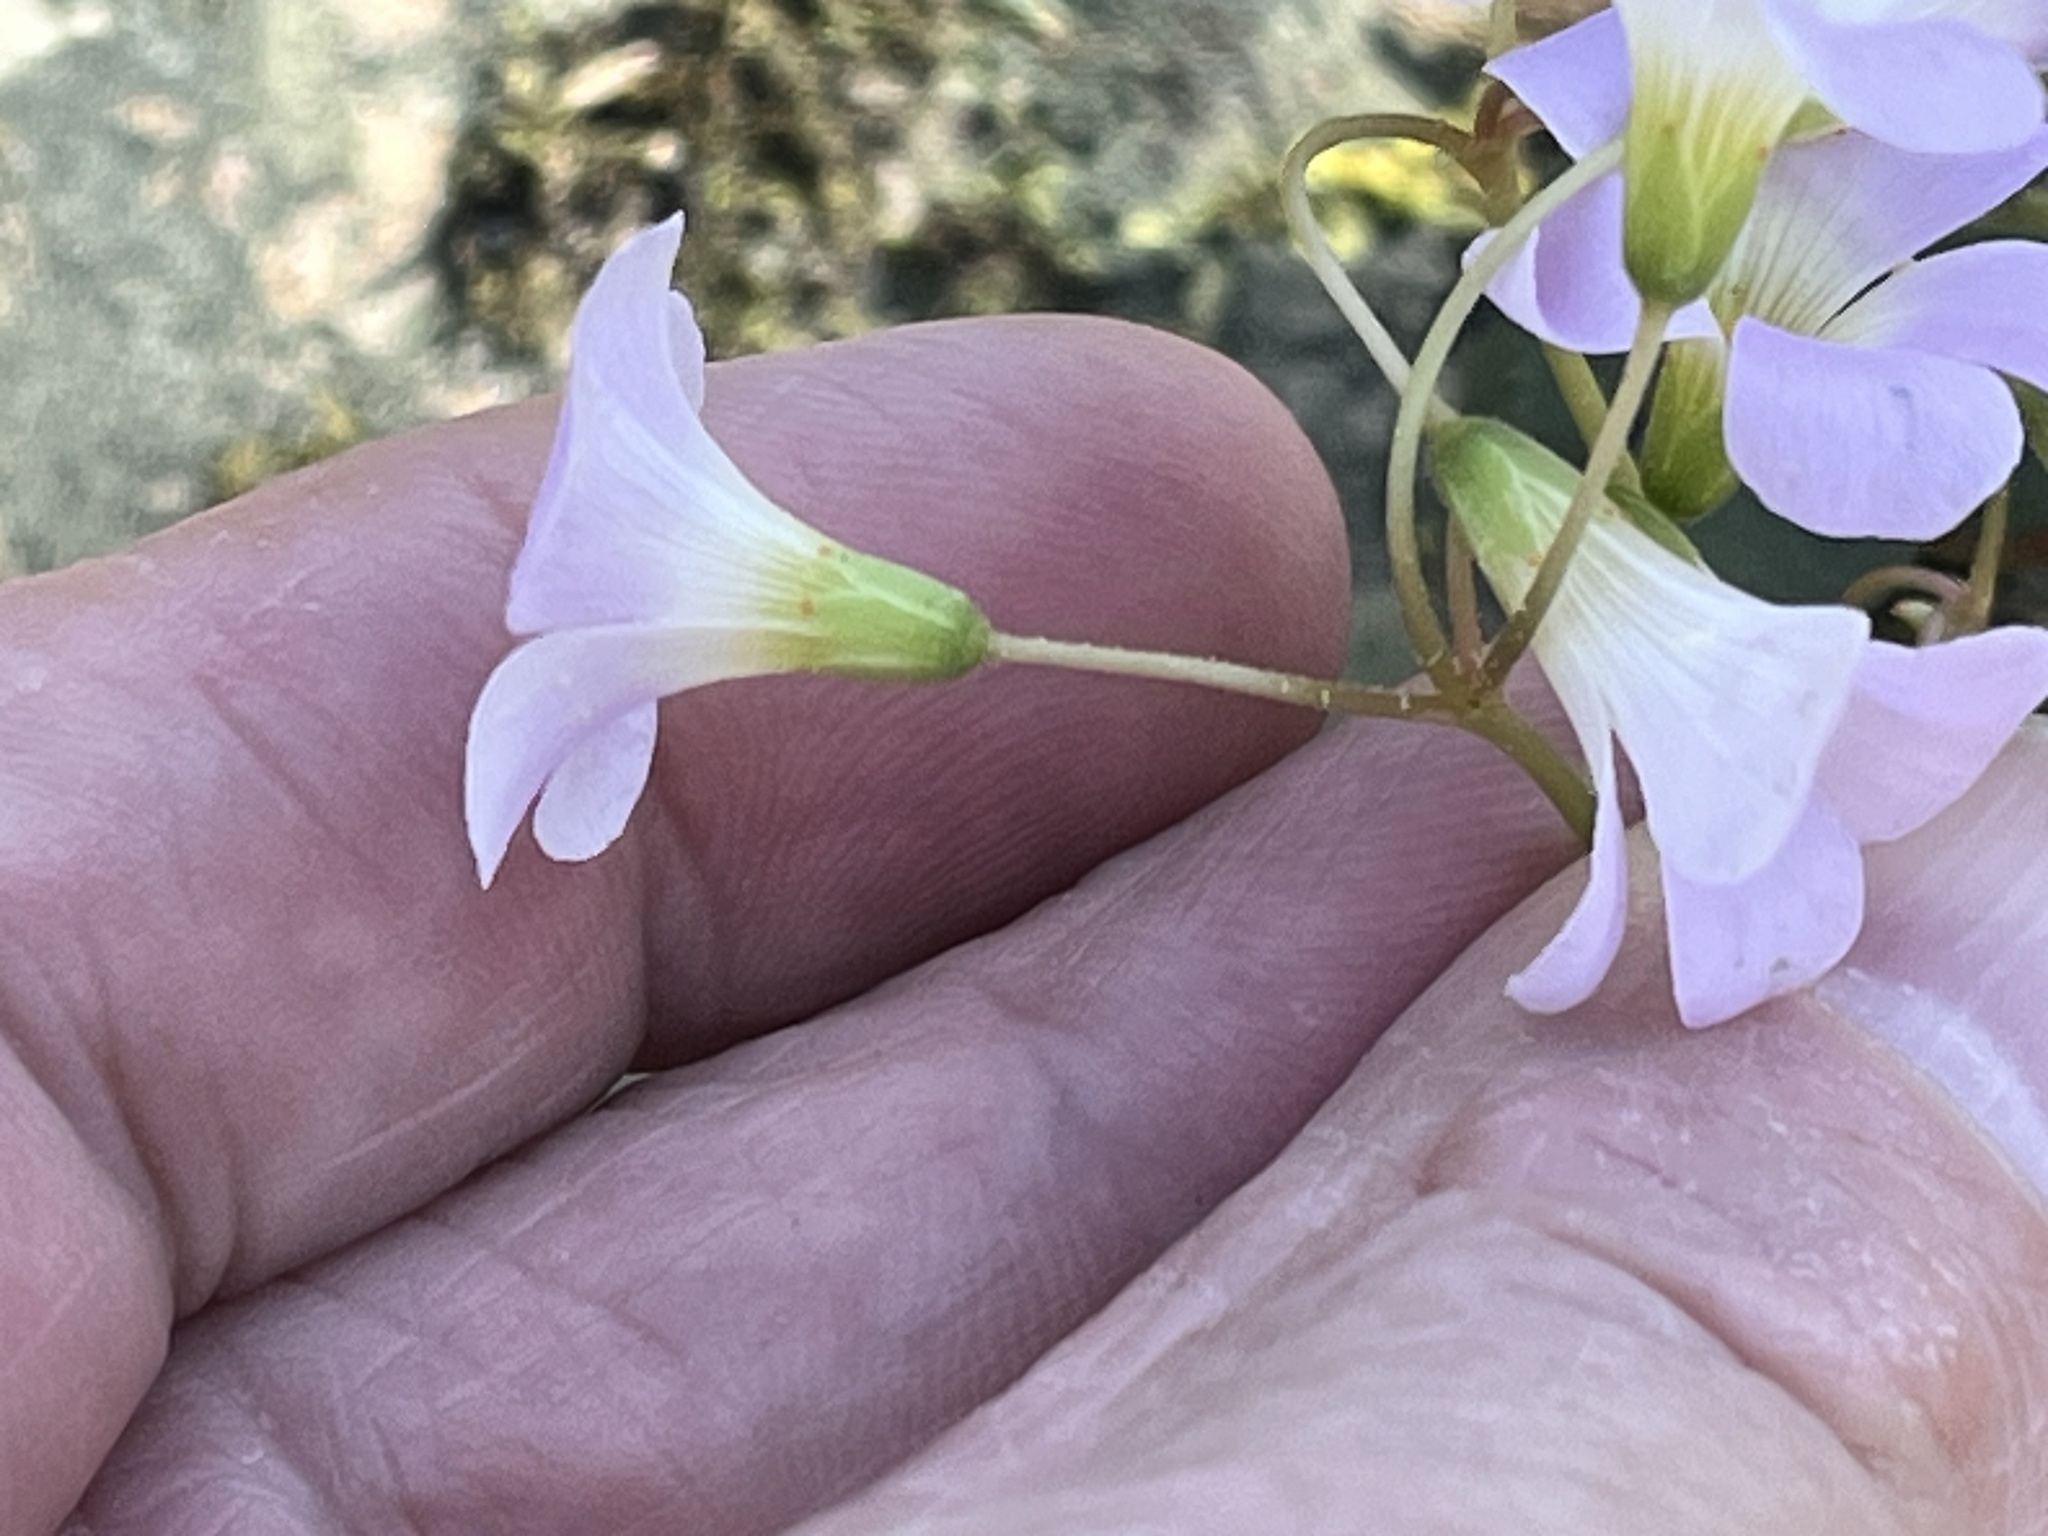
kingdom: Plantae
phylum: Tracheophyta
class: Magnoliopsida
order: Oxalidales
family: Oxalidaceae
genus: Oxalis
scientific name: Oxalis violacea
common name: Violet wood-sorrel
